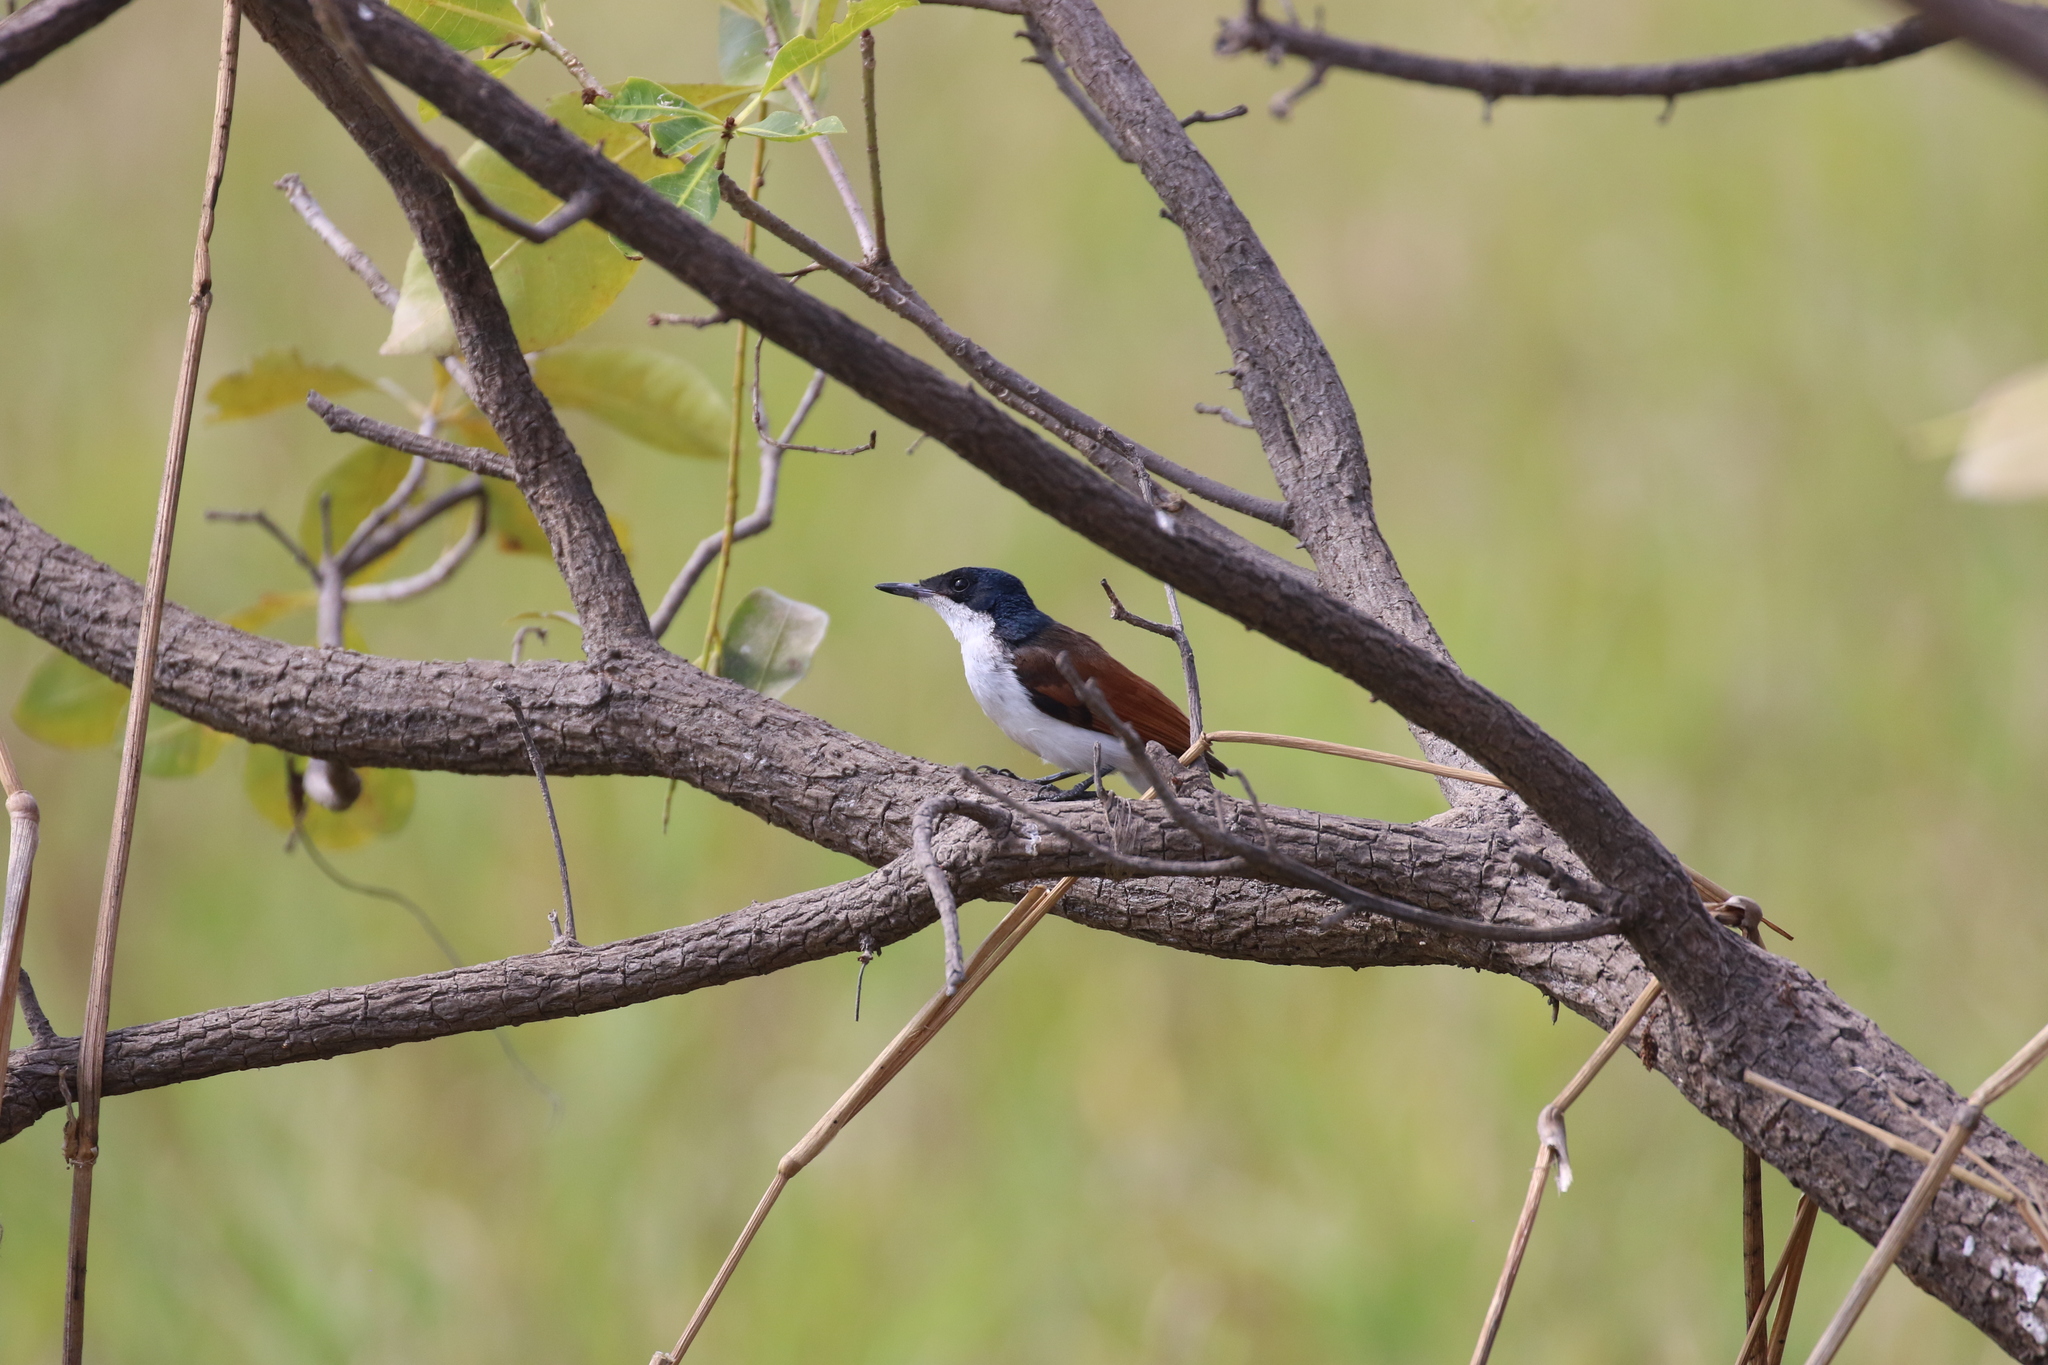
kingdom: Animalia
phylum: Chordata
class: Aves
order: Passeriformes
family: Monarchidae
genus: Myiagra
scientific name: Myiagra alecto
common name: Shining flycatcher
